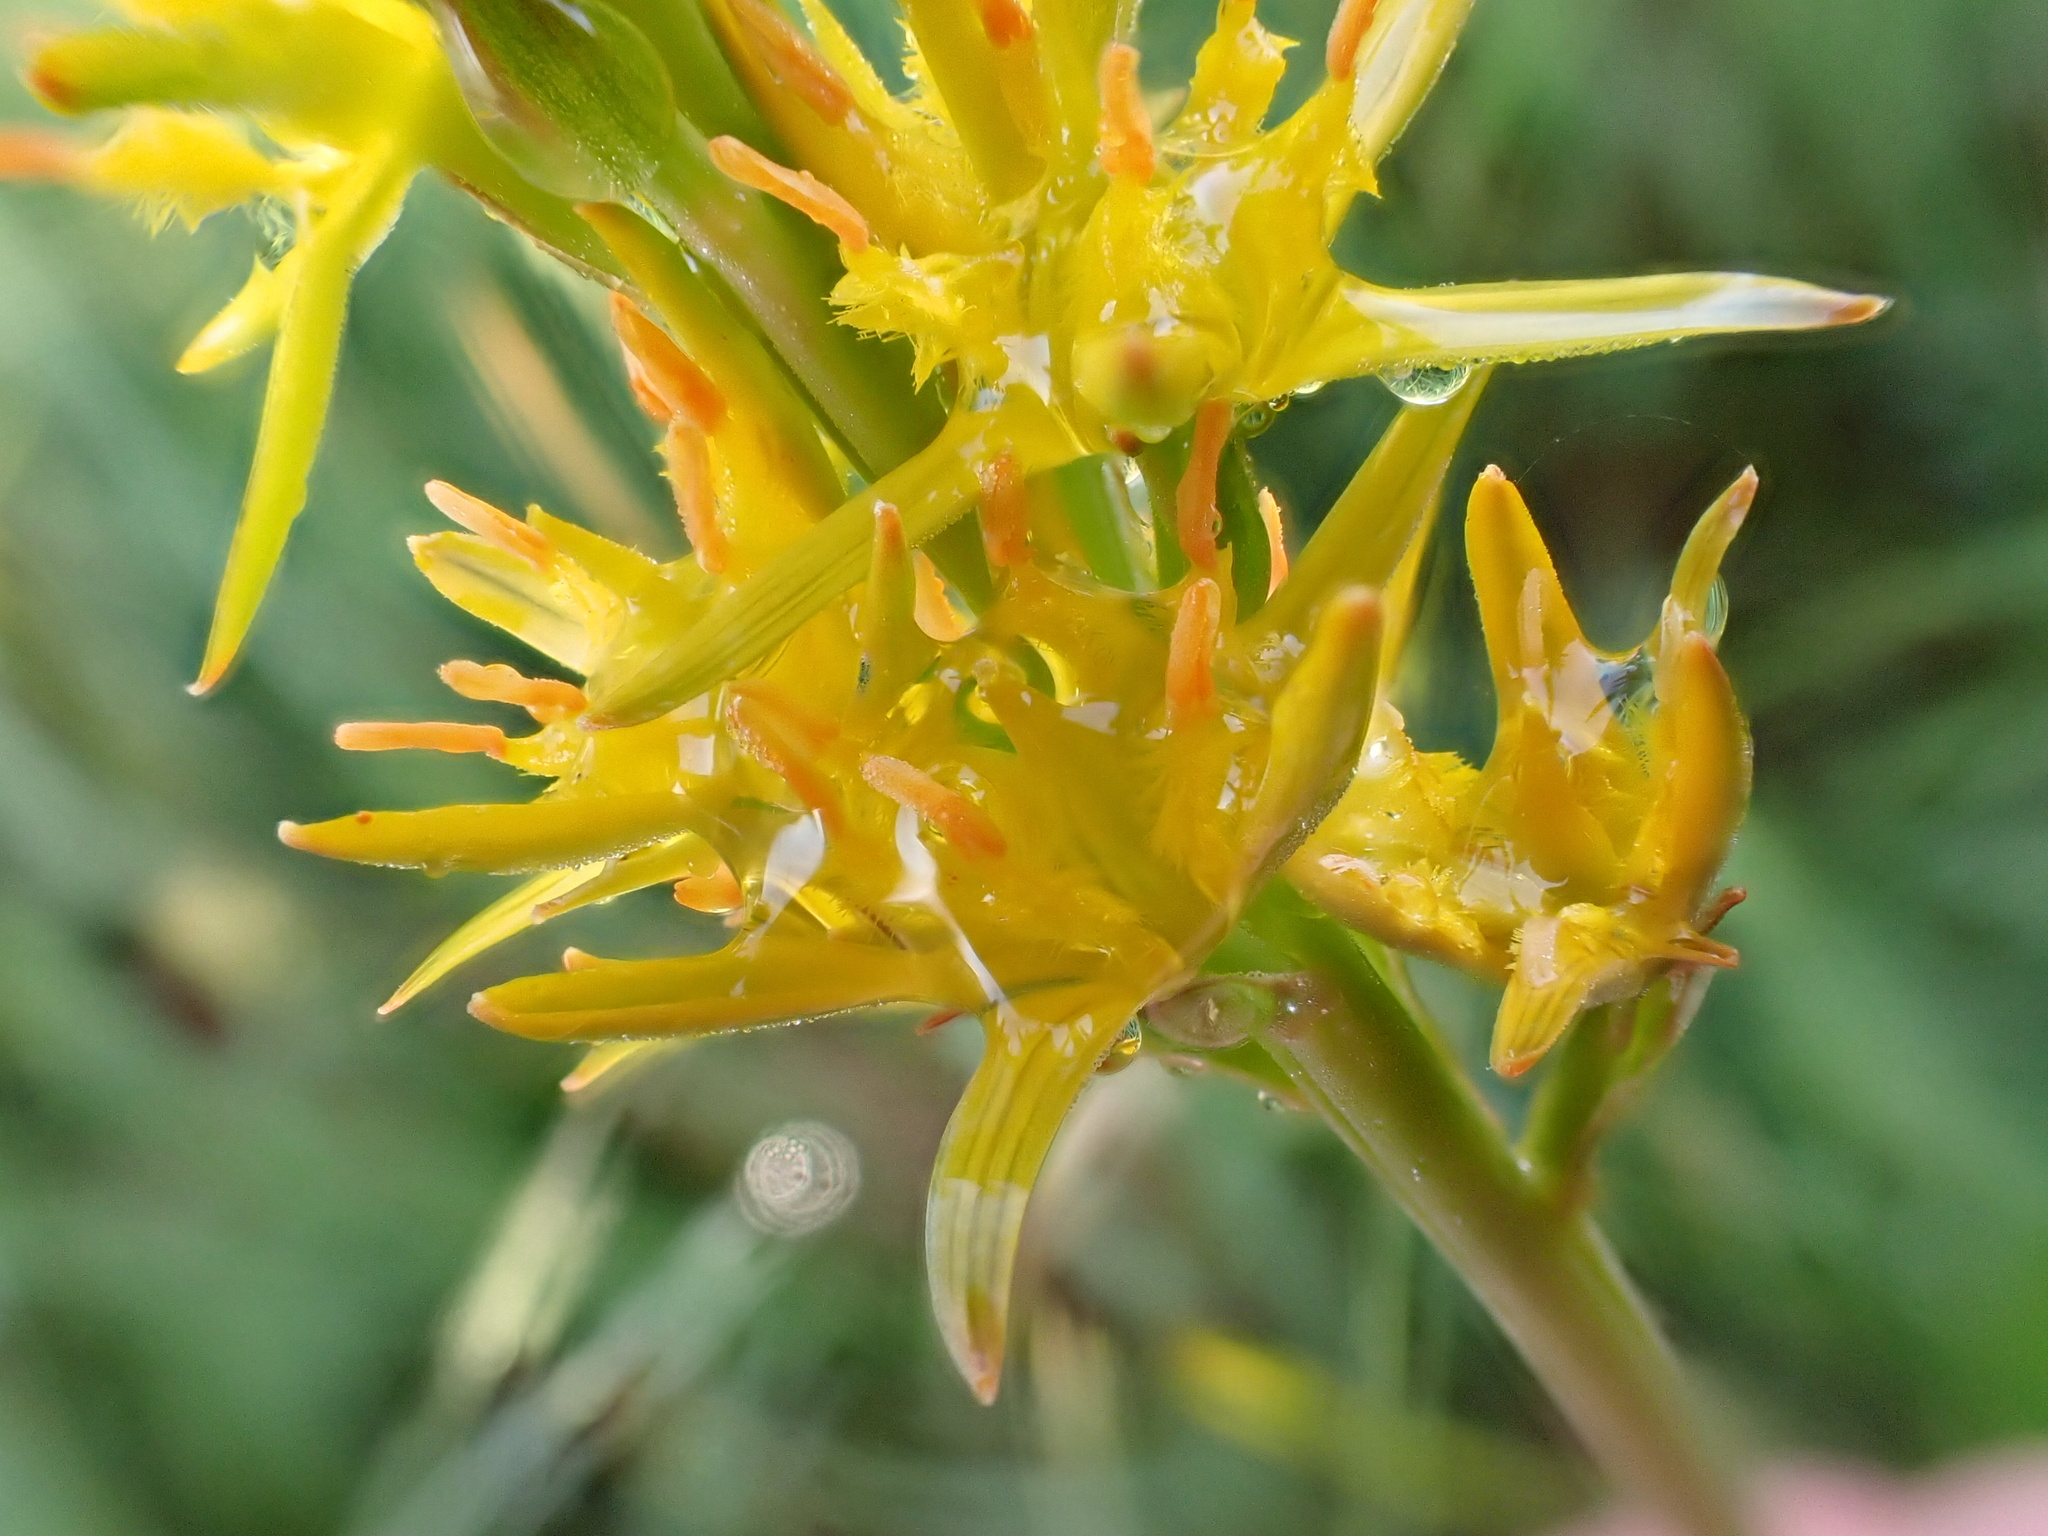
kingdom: Plantae
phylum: Tracheophyta
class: Liliopsida
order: Dioscoreales
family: Nartheciaceae
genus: Narthecium
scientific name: Narthecium ossifragum
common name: Bog asphodel
